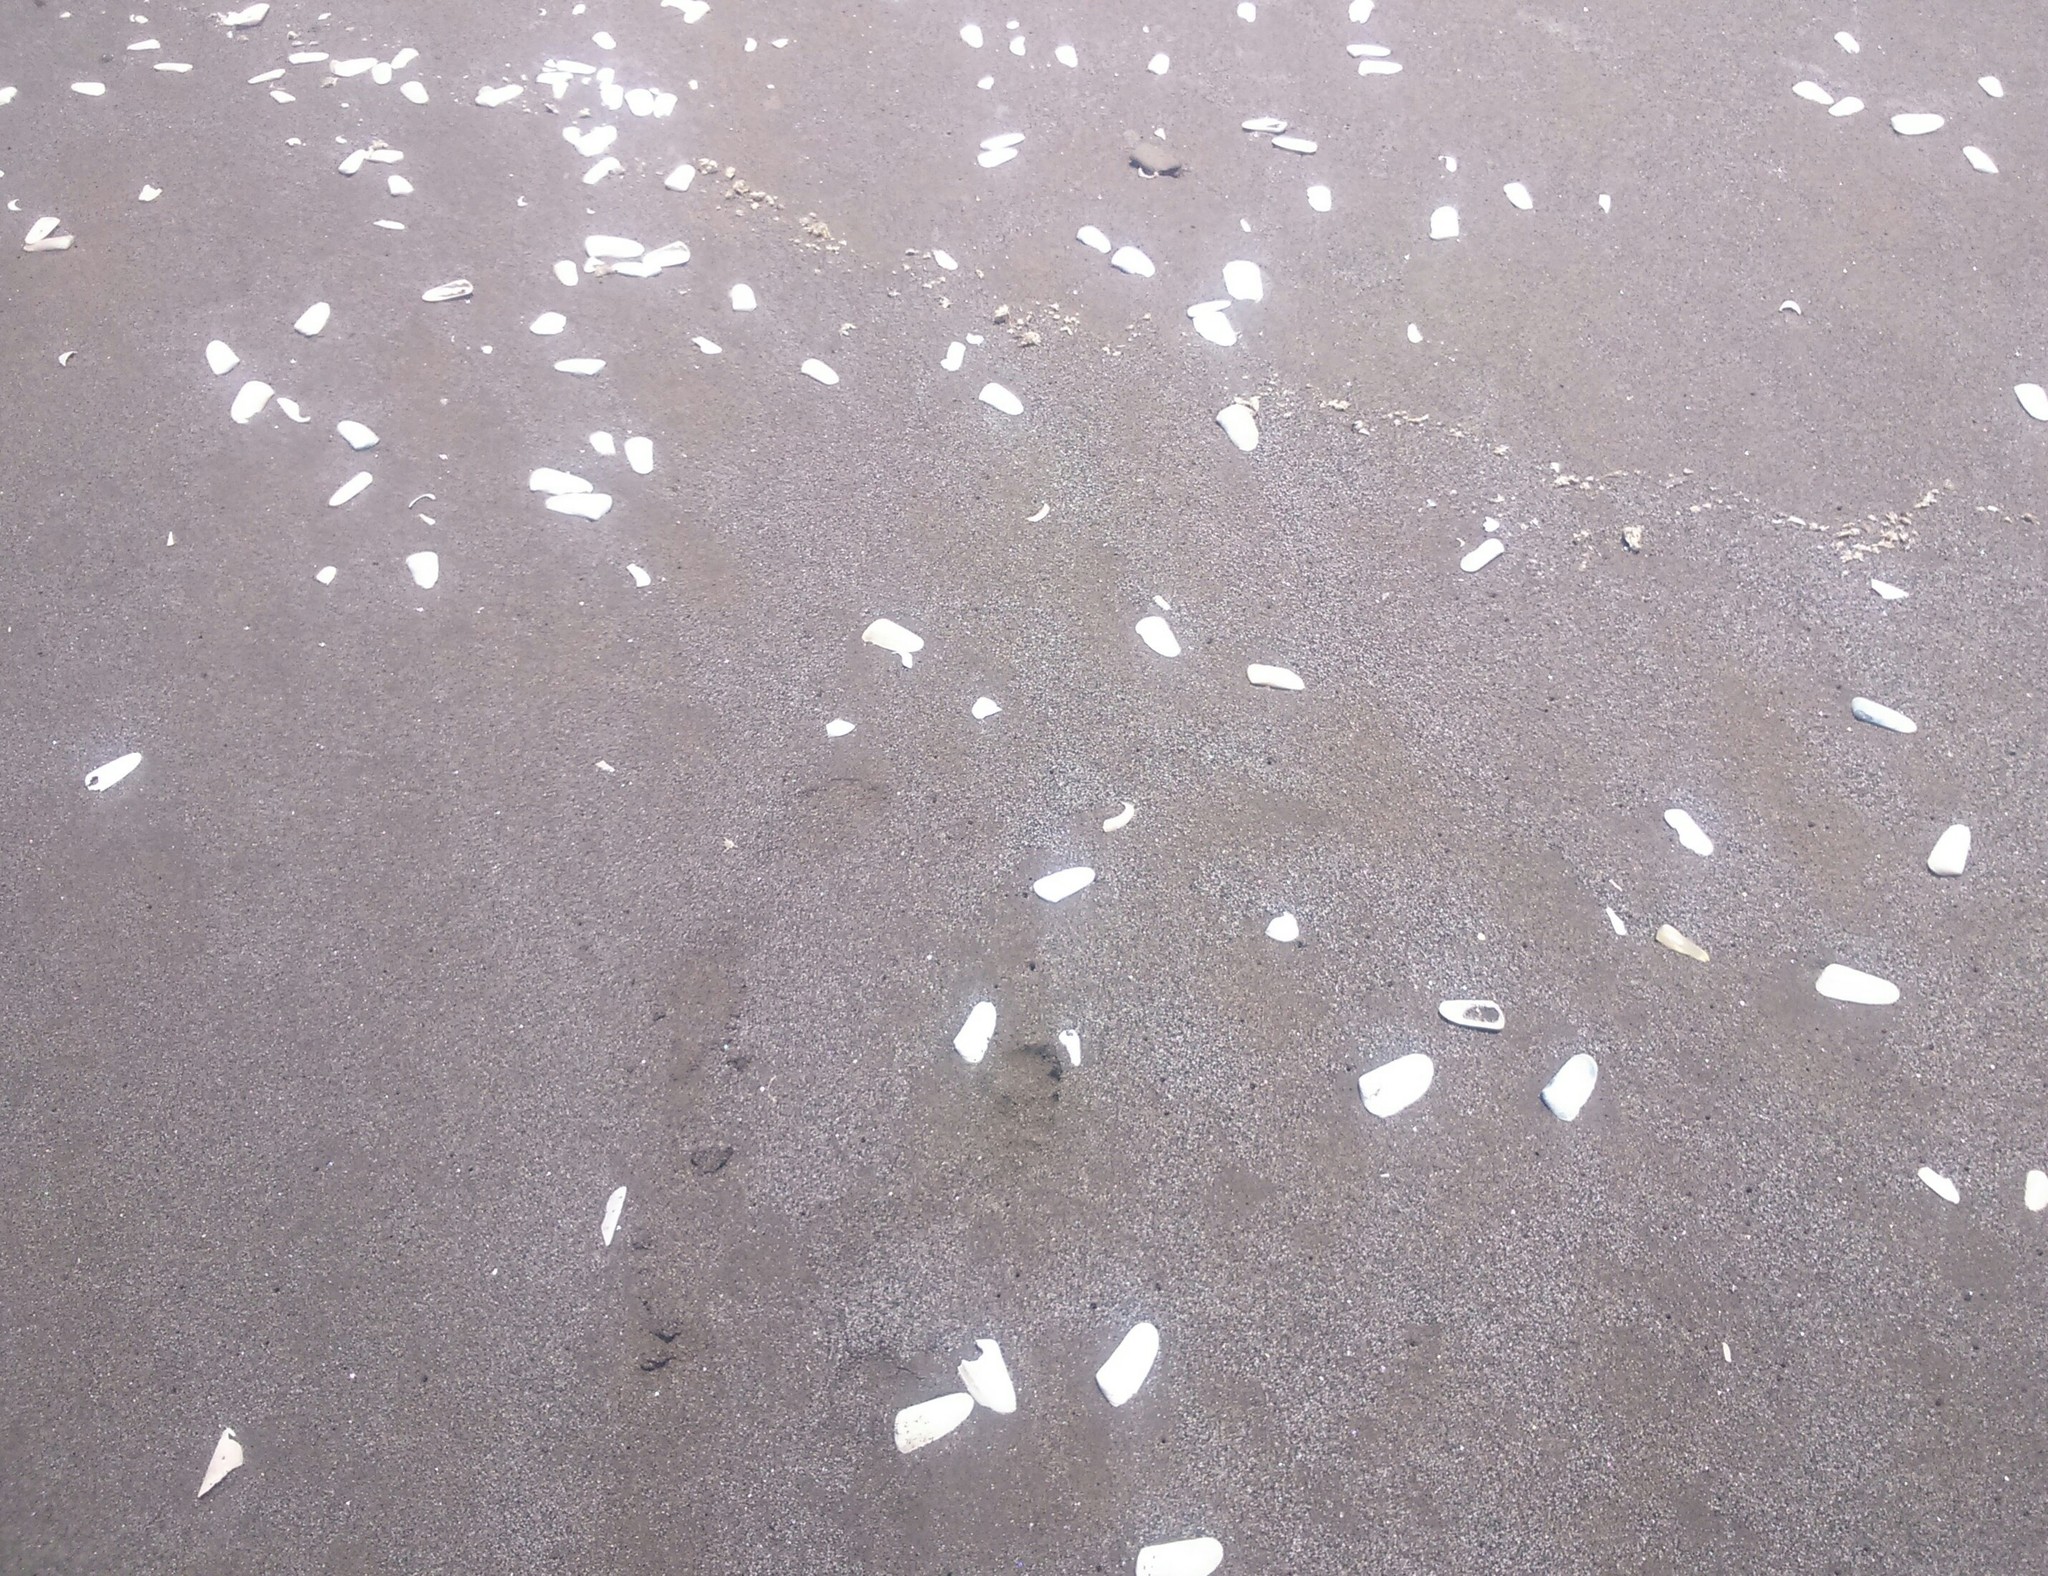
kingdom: Animalia
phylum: Mollusca
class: Bivalvia
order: Venerida
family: Mesodesmatidae
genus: Mesodesma
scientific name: Mesodesma donacium
